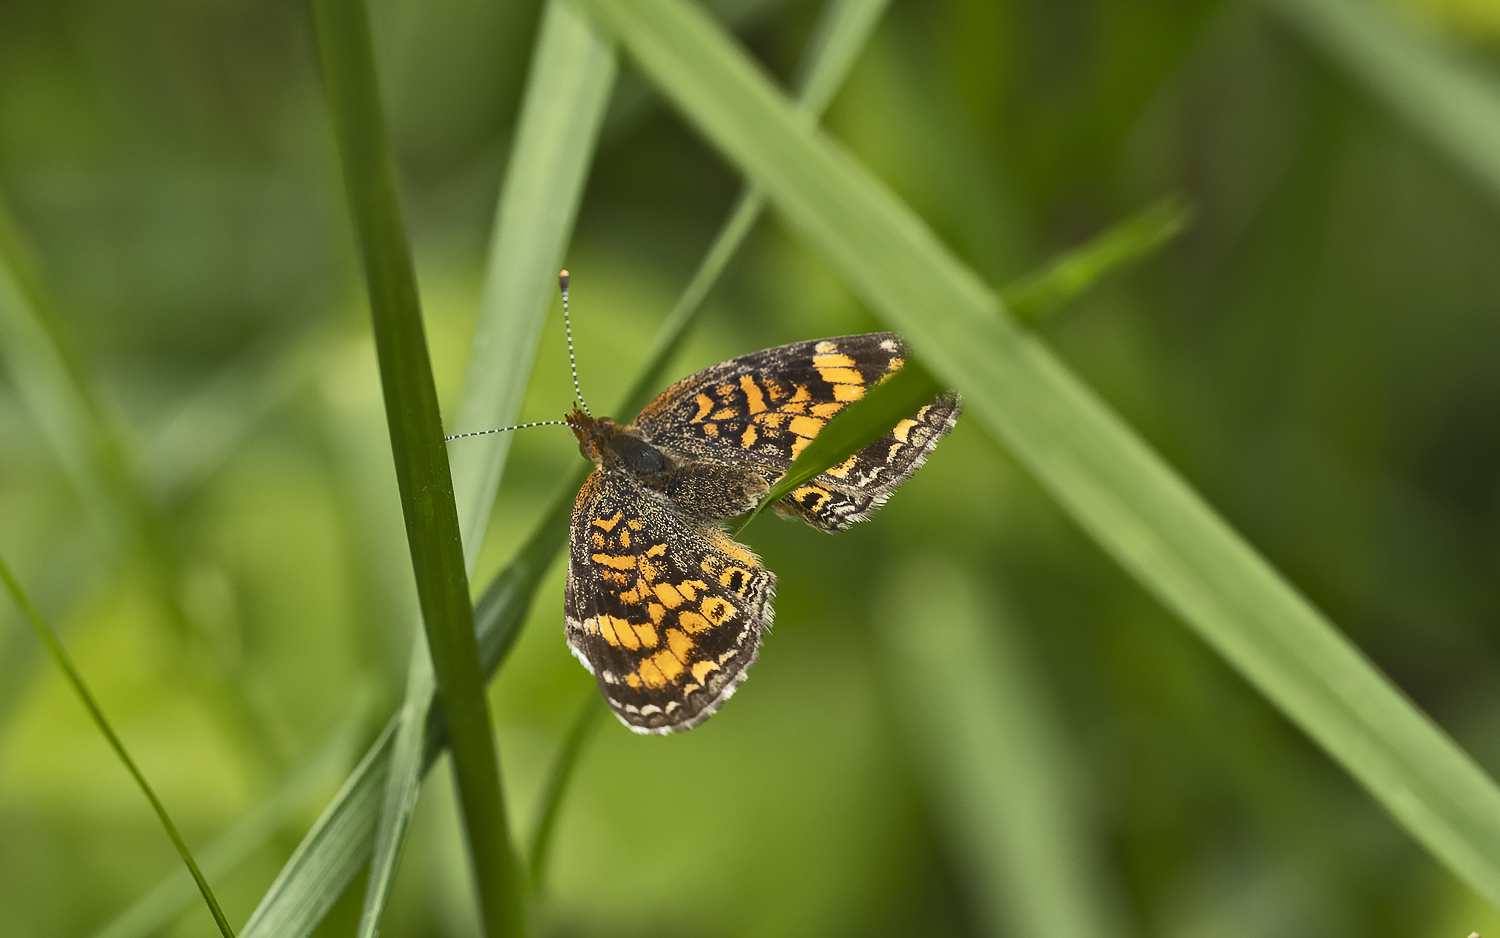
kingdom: Animalia
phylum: Arthropoda
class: Insecta
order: Lepidoptera
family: Nymphalidae
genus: Phyciodes
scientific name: Phyciodes tharos
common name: Pearl crescent
